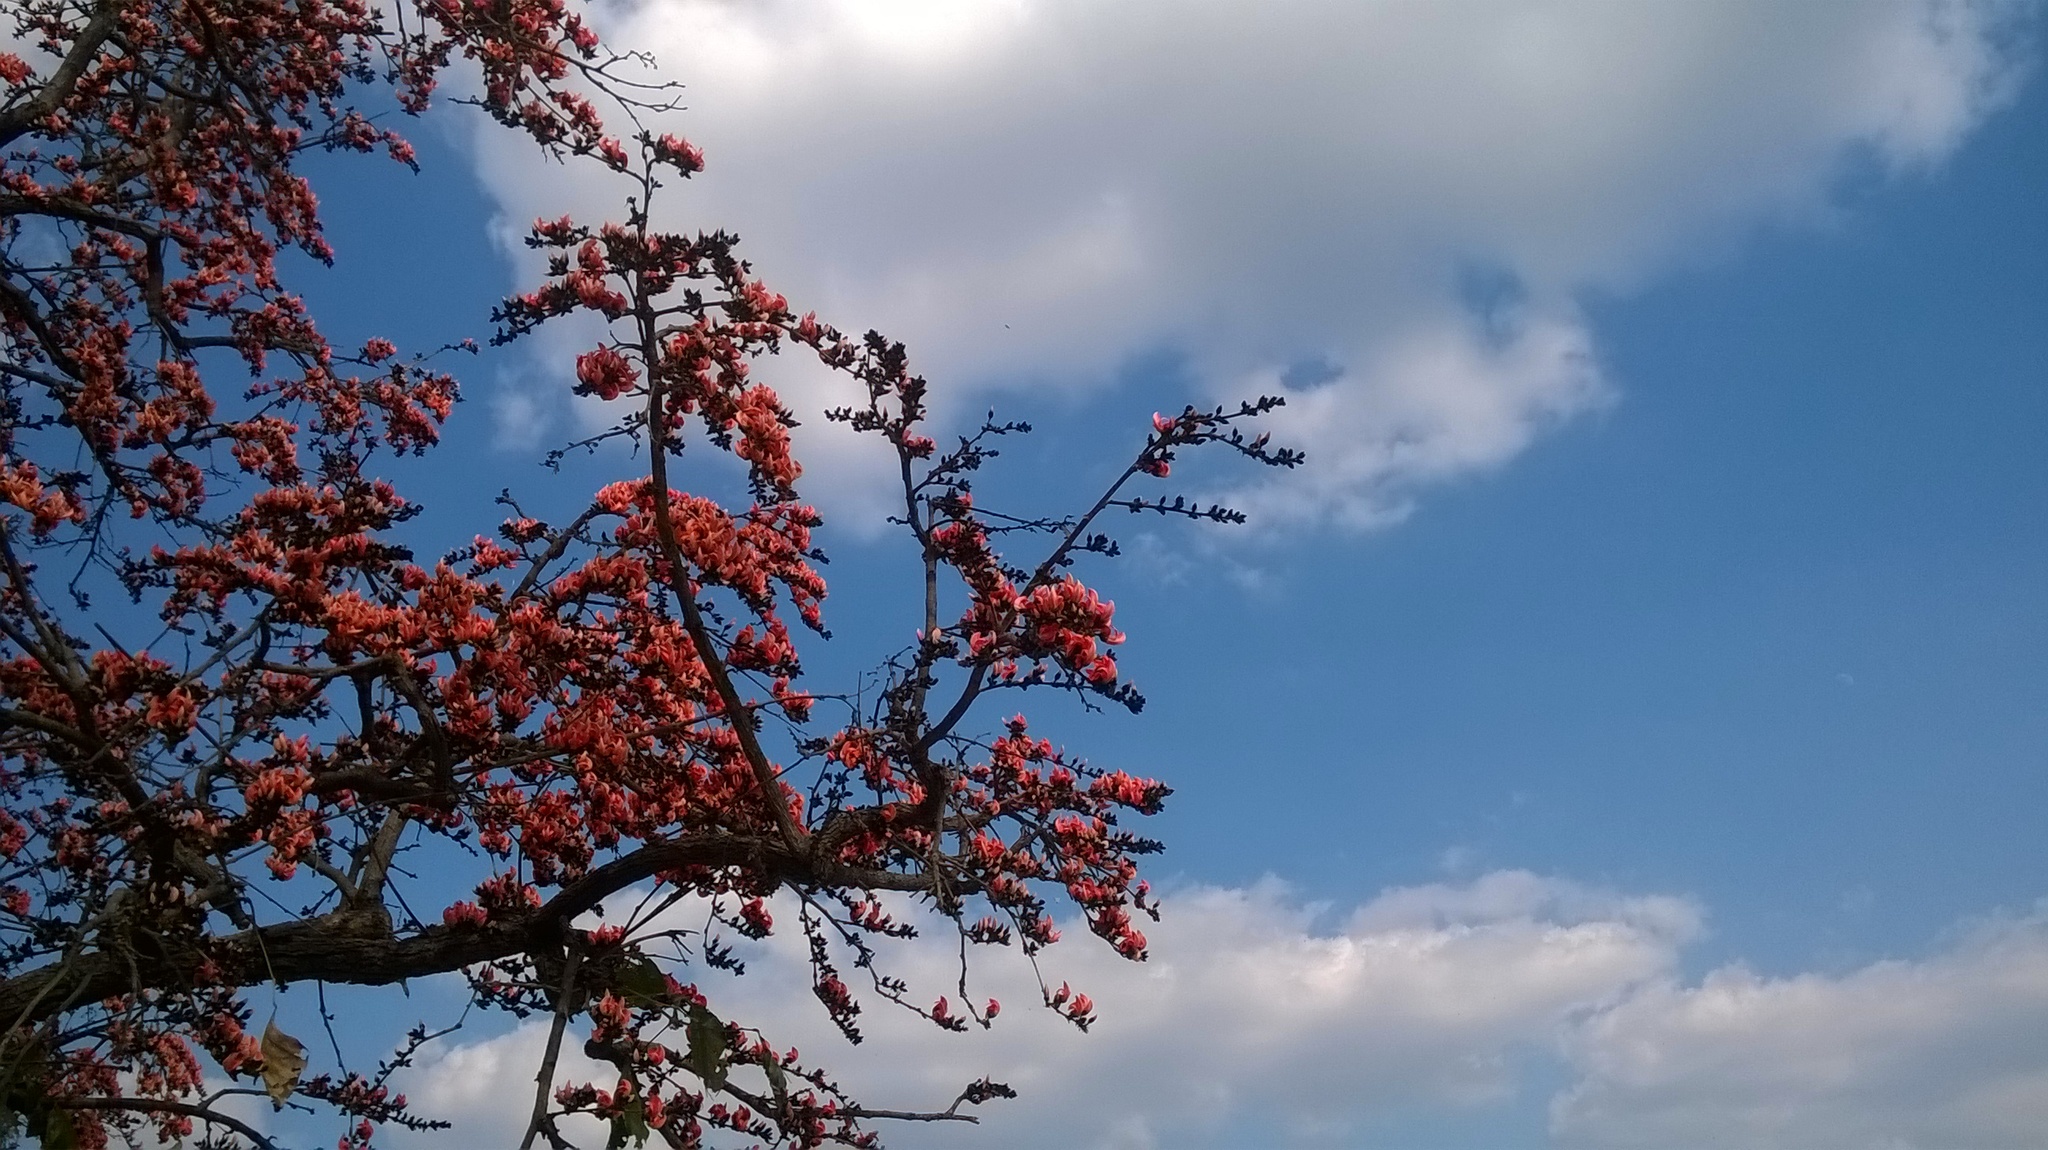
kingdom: Plantae
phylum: Tracheophyta
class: Magnoliopsida
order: Fabales
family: Fabaceae
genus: Butea
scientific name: Butea monosperma
